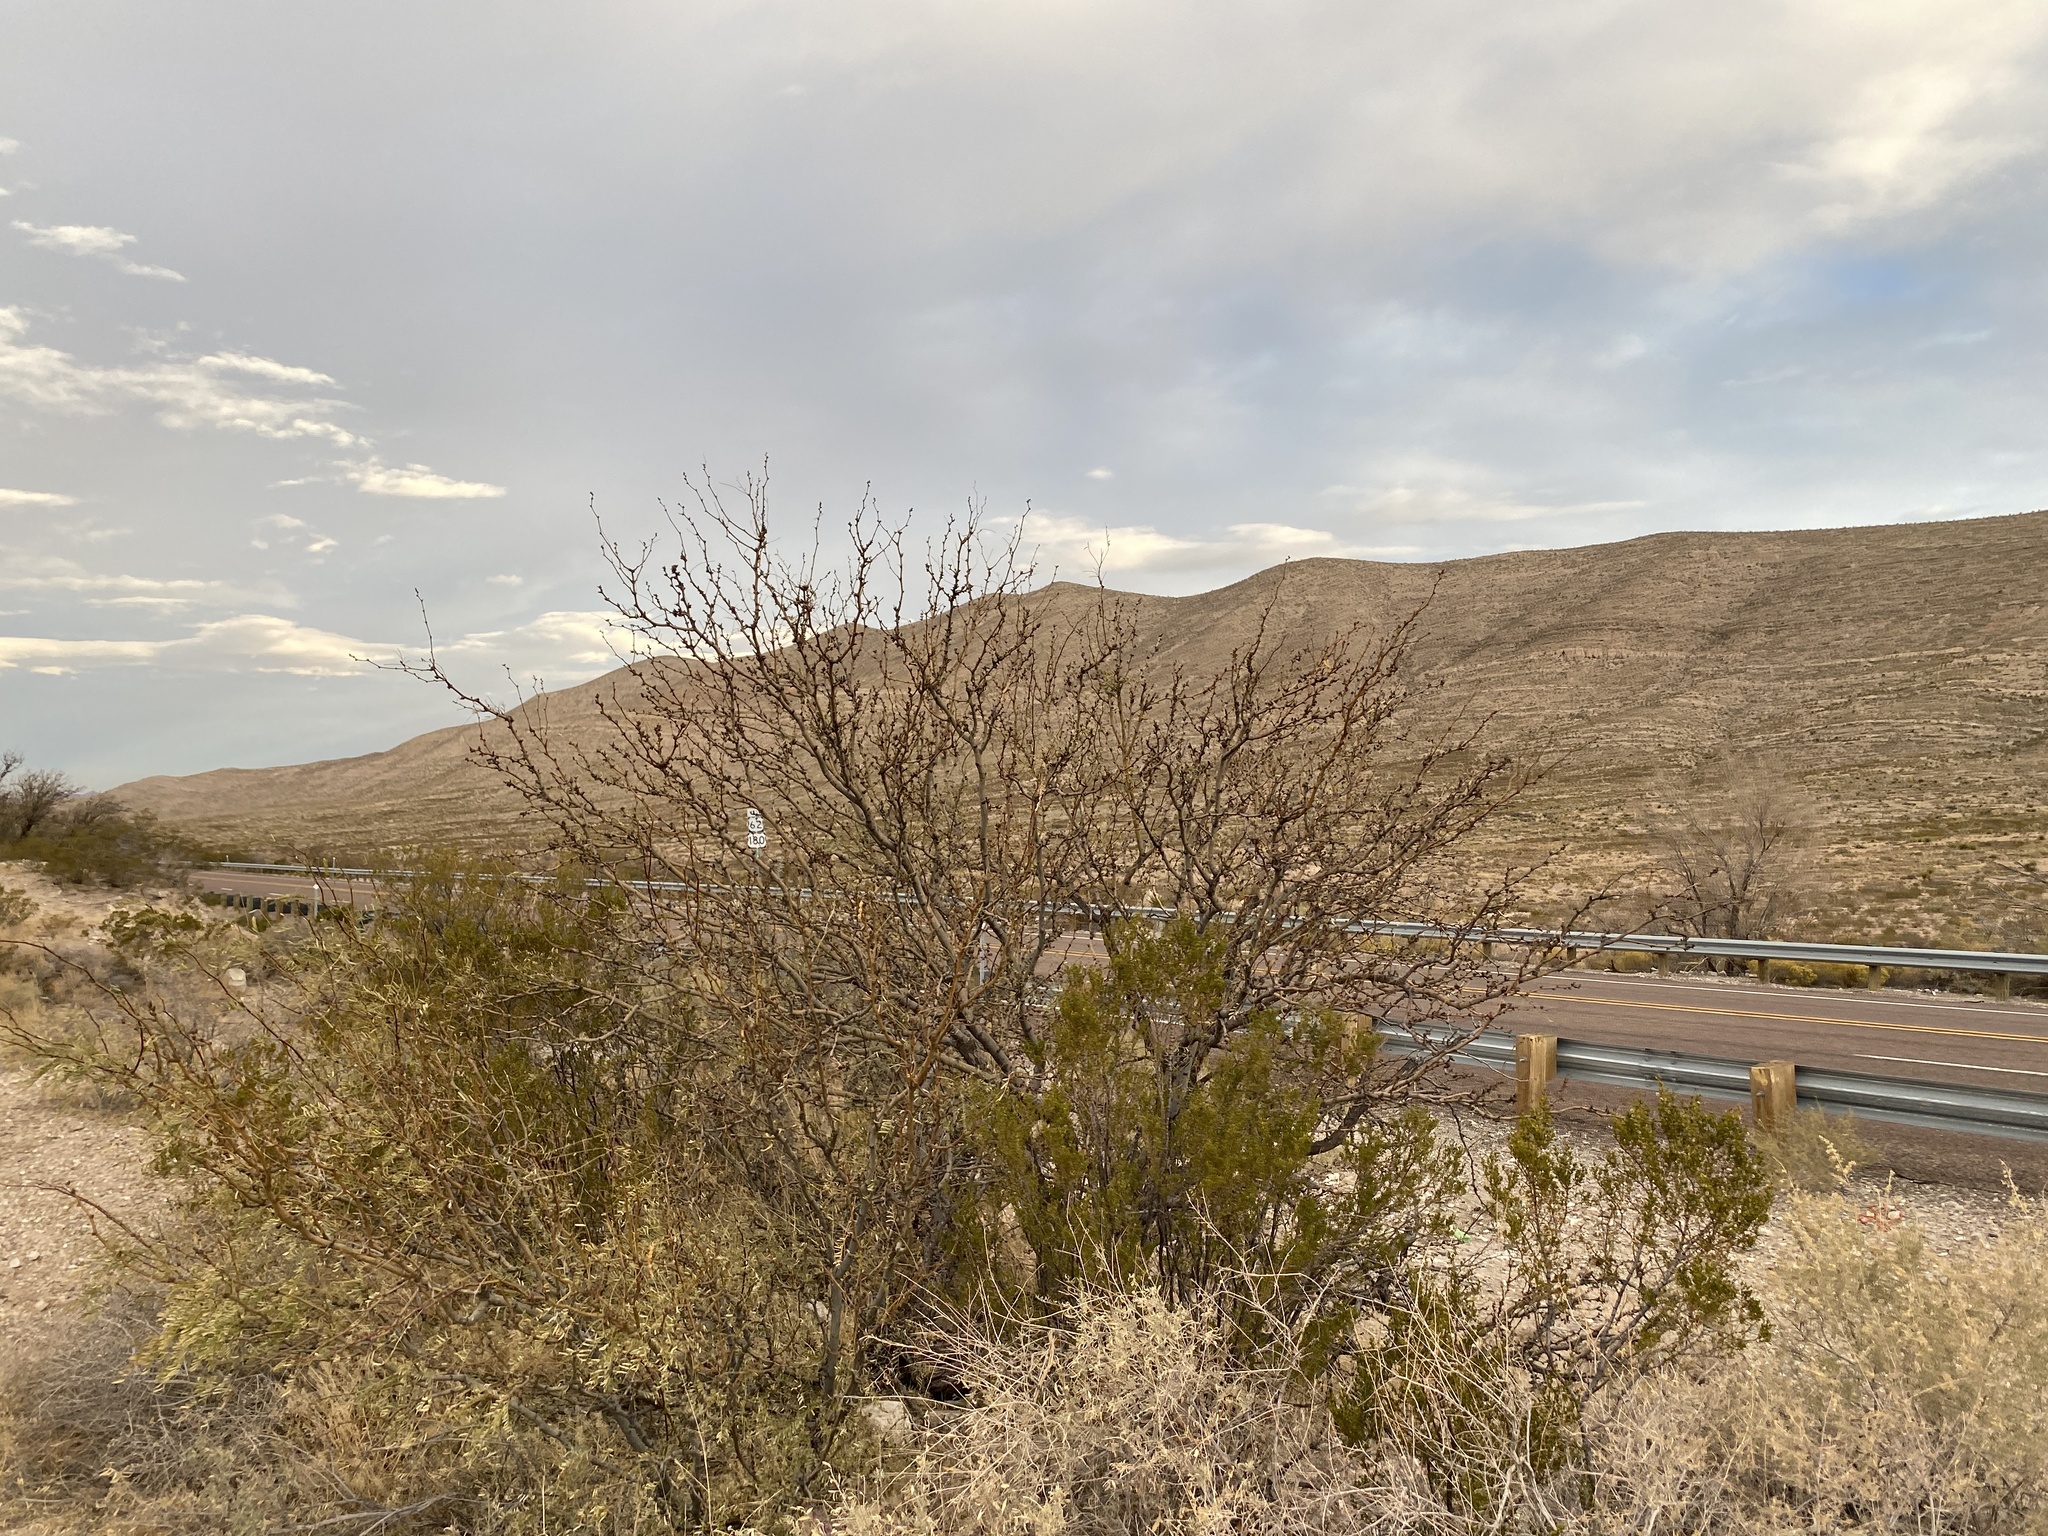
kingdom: Plantae
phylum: Tracheophyta
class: Magnoliopsida
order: Fabales
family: Fabaceae
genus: Prosopis
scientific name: Prosopis glandulosa
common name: Honey mesquite
